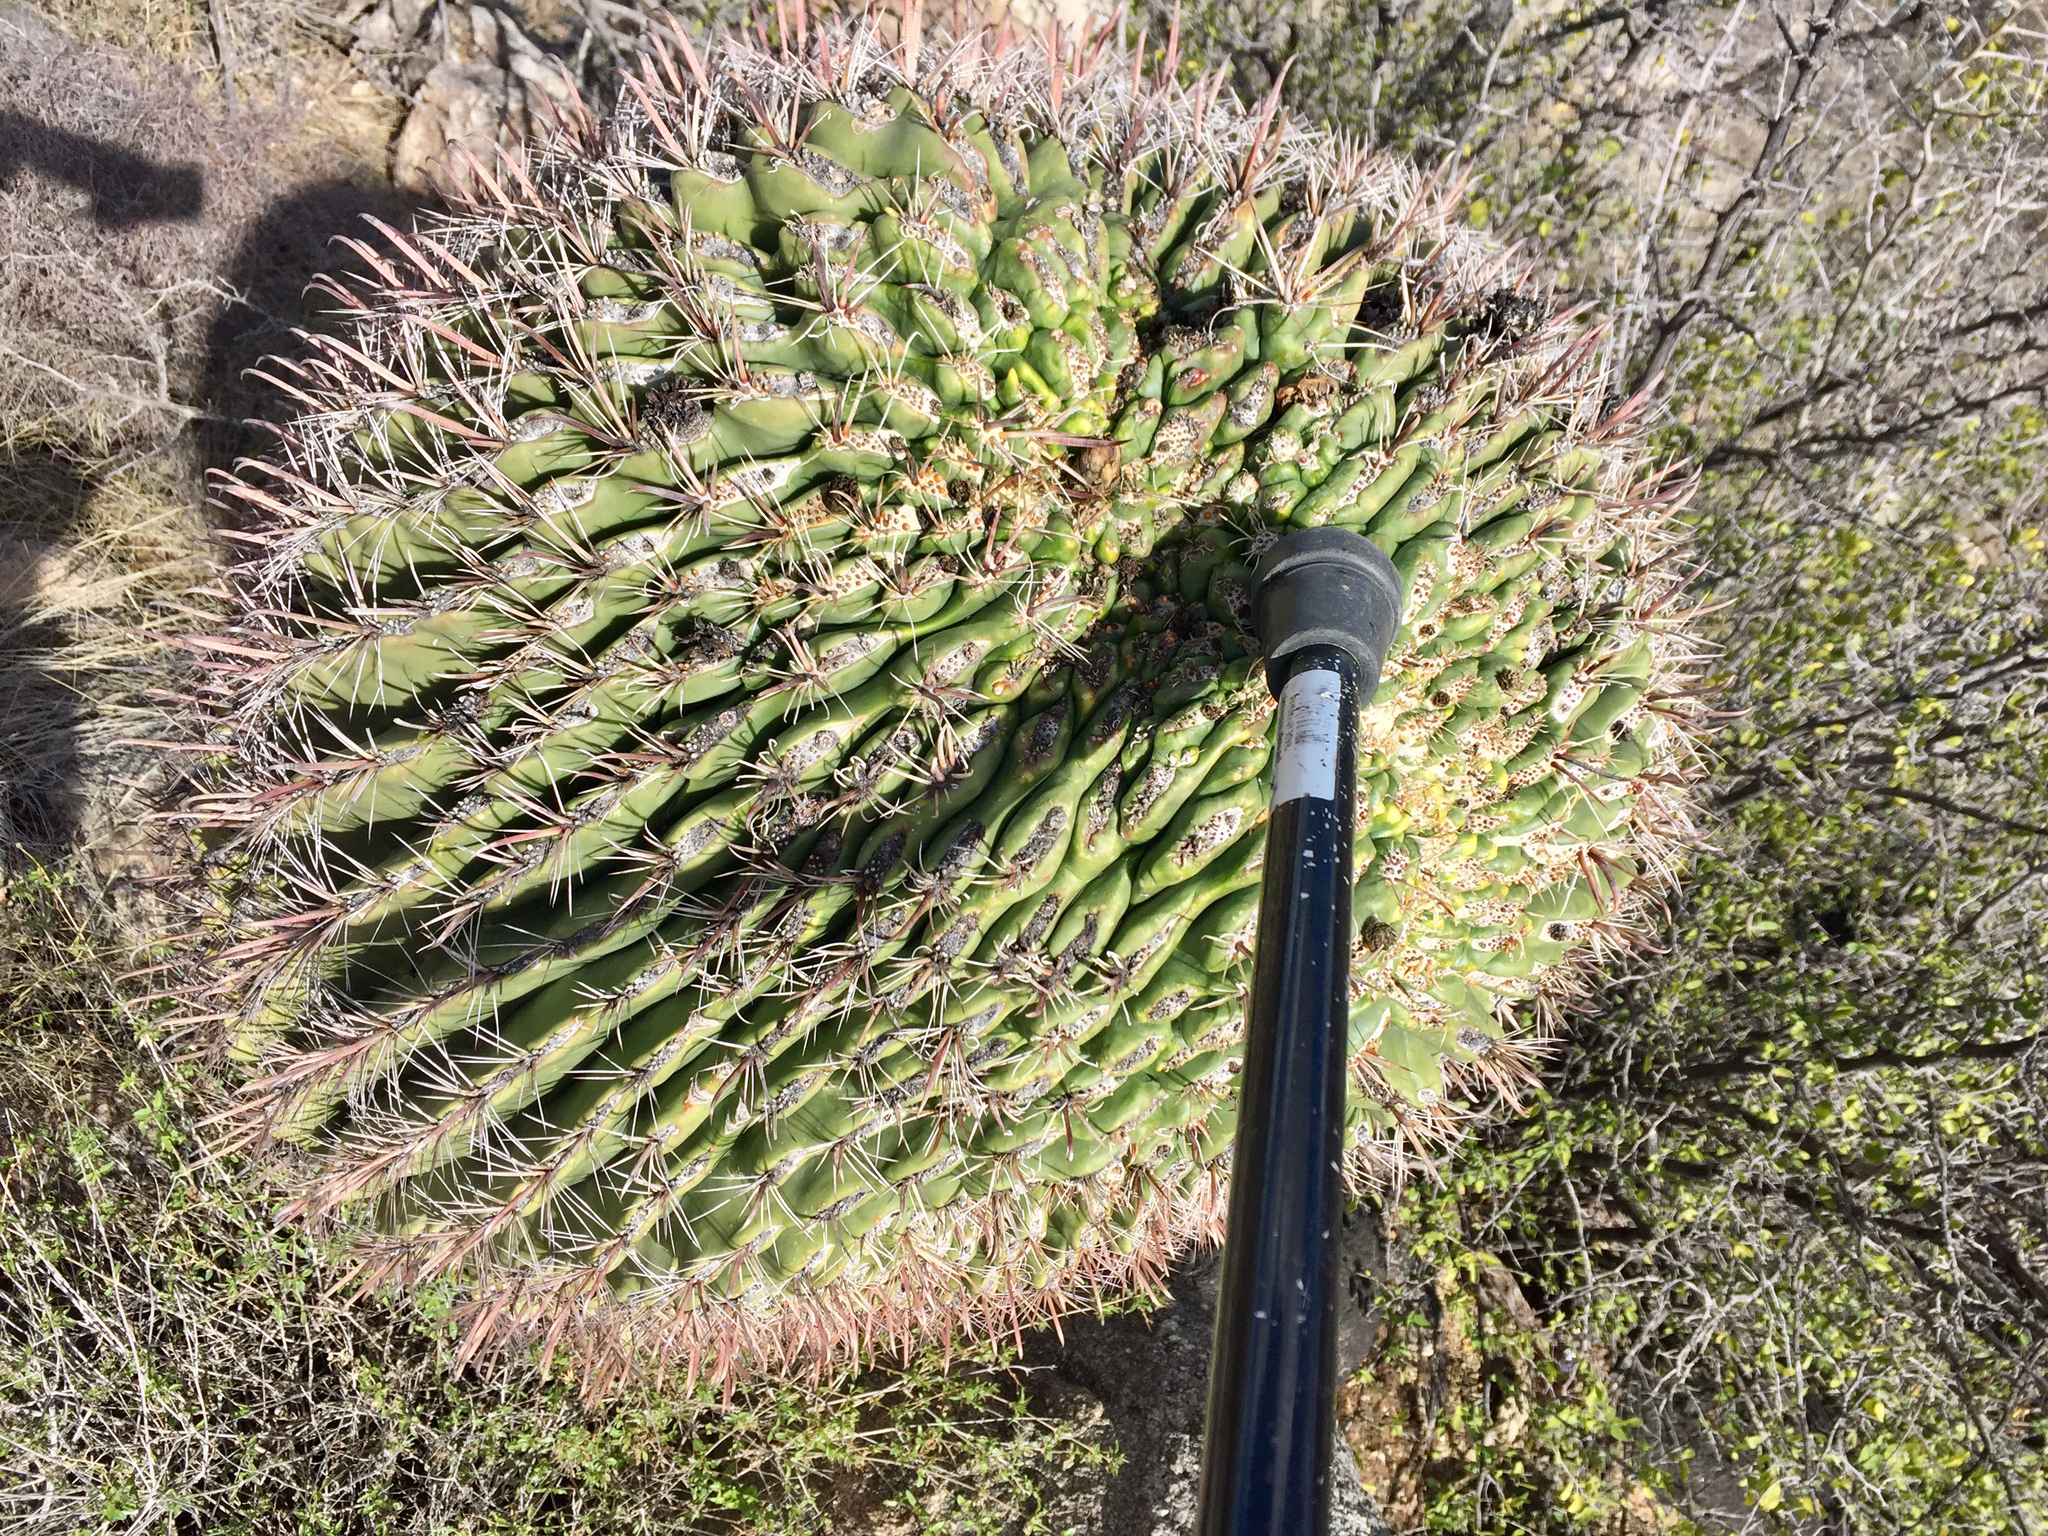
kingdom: Plantae
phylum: Tracheophyta
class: Magnoliopsida
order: Caryophyllales
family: Cactaceae
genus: Ferocactus
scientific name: Ferocactus wislizeni
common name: Candy barrel cactus
